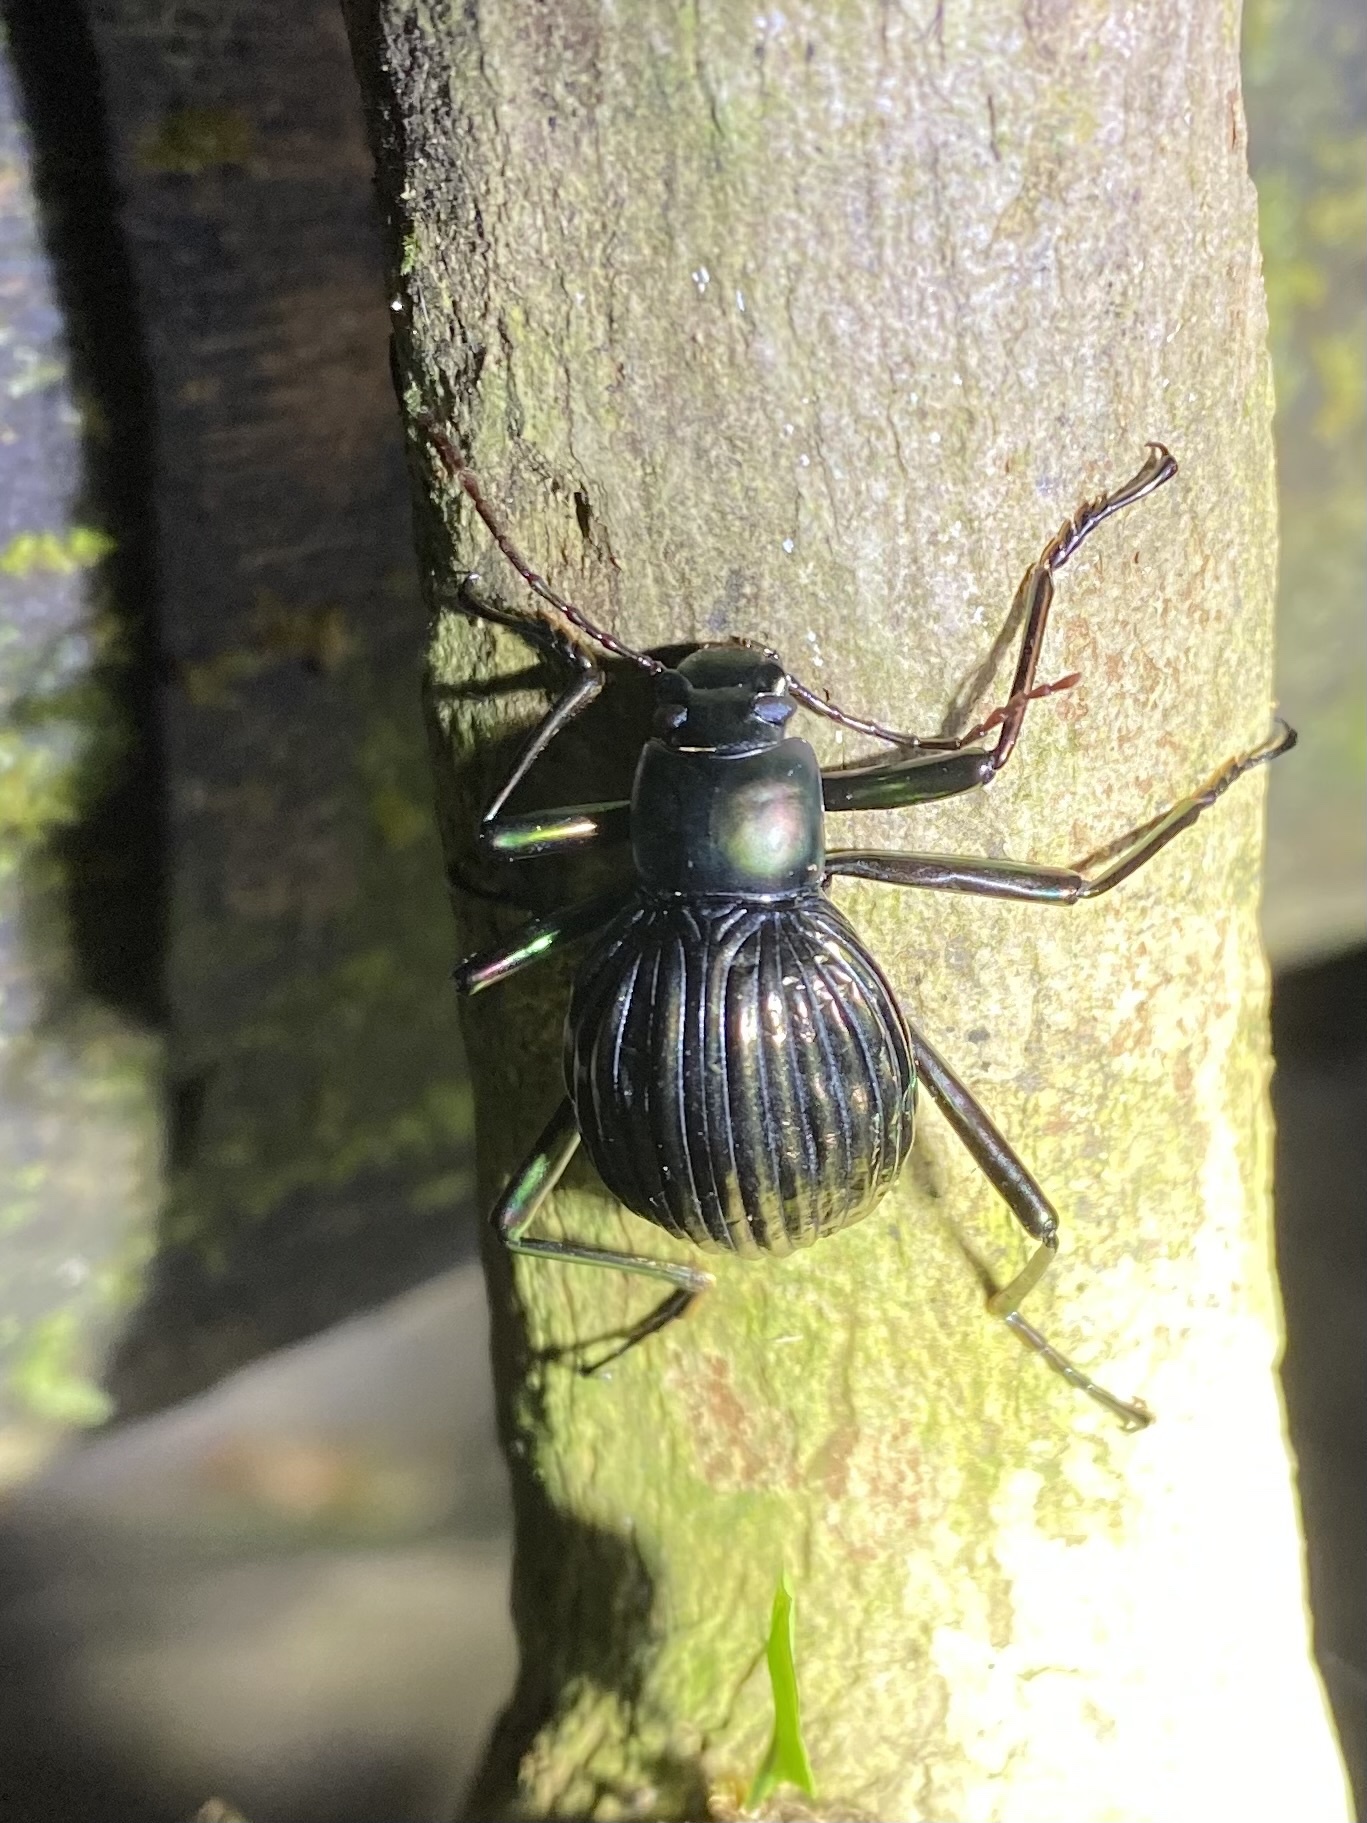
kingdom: Animalia
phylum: Arthropoda
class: Insecta
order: Coleoptera
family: Tenebrionidae
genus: Hegemona
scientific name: Hegemona flibuster
